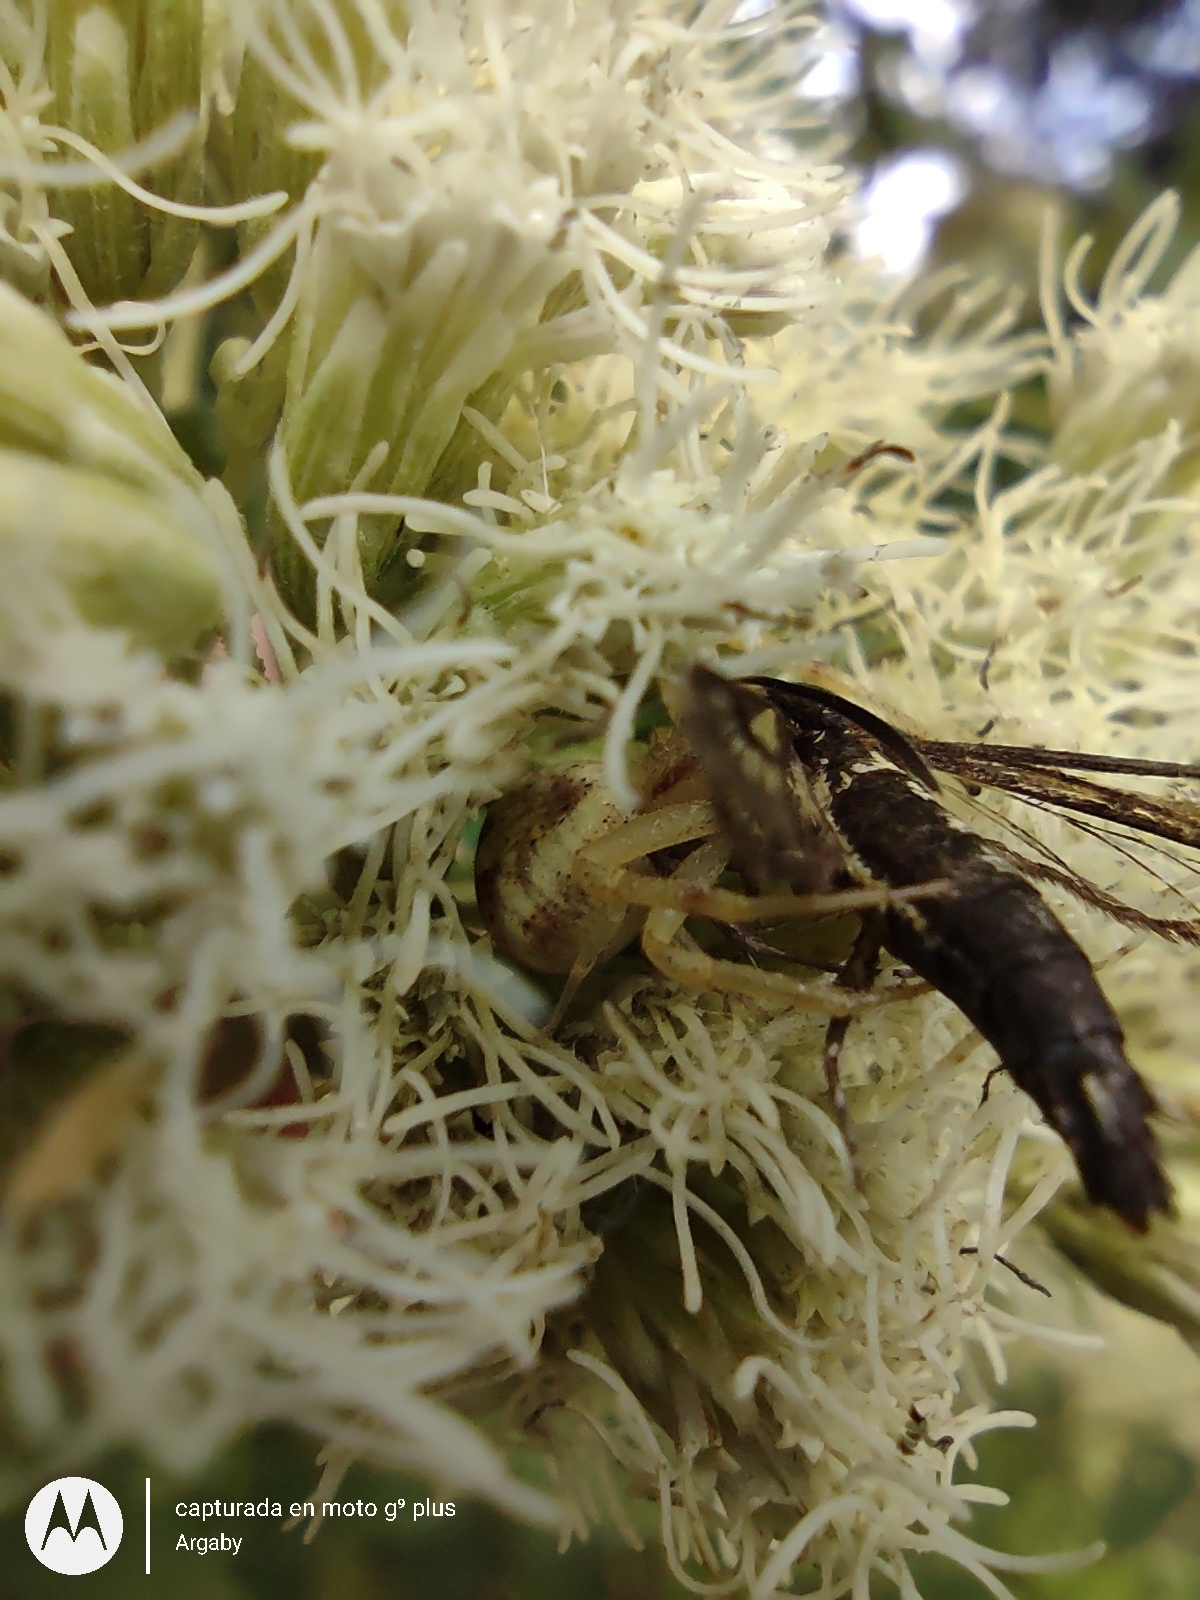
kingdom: Animalia
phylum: Arthropoda
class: Arachnida
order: Araneae
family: Thomisidae
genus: Misumenops
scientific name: Misumenops
